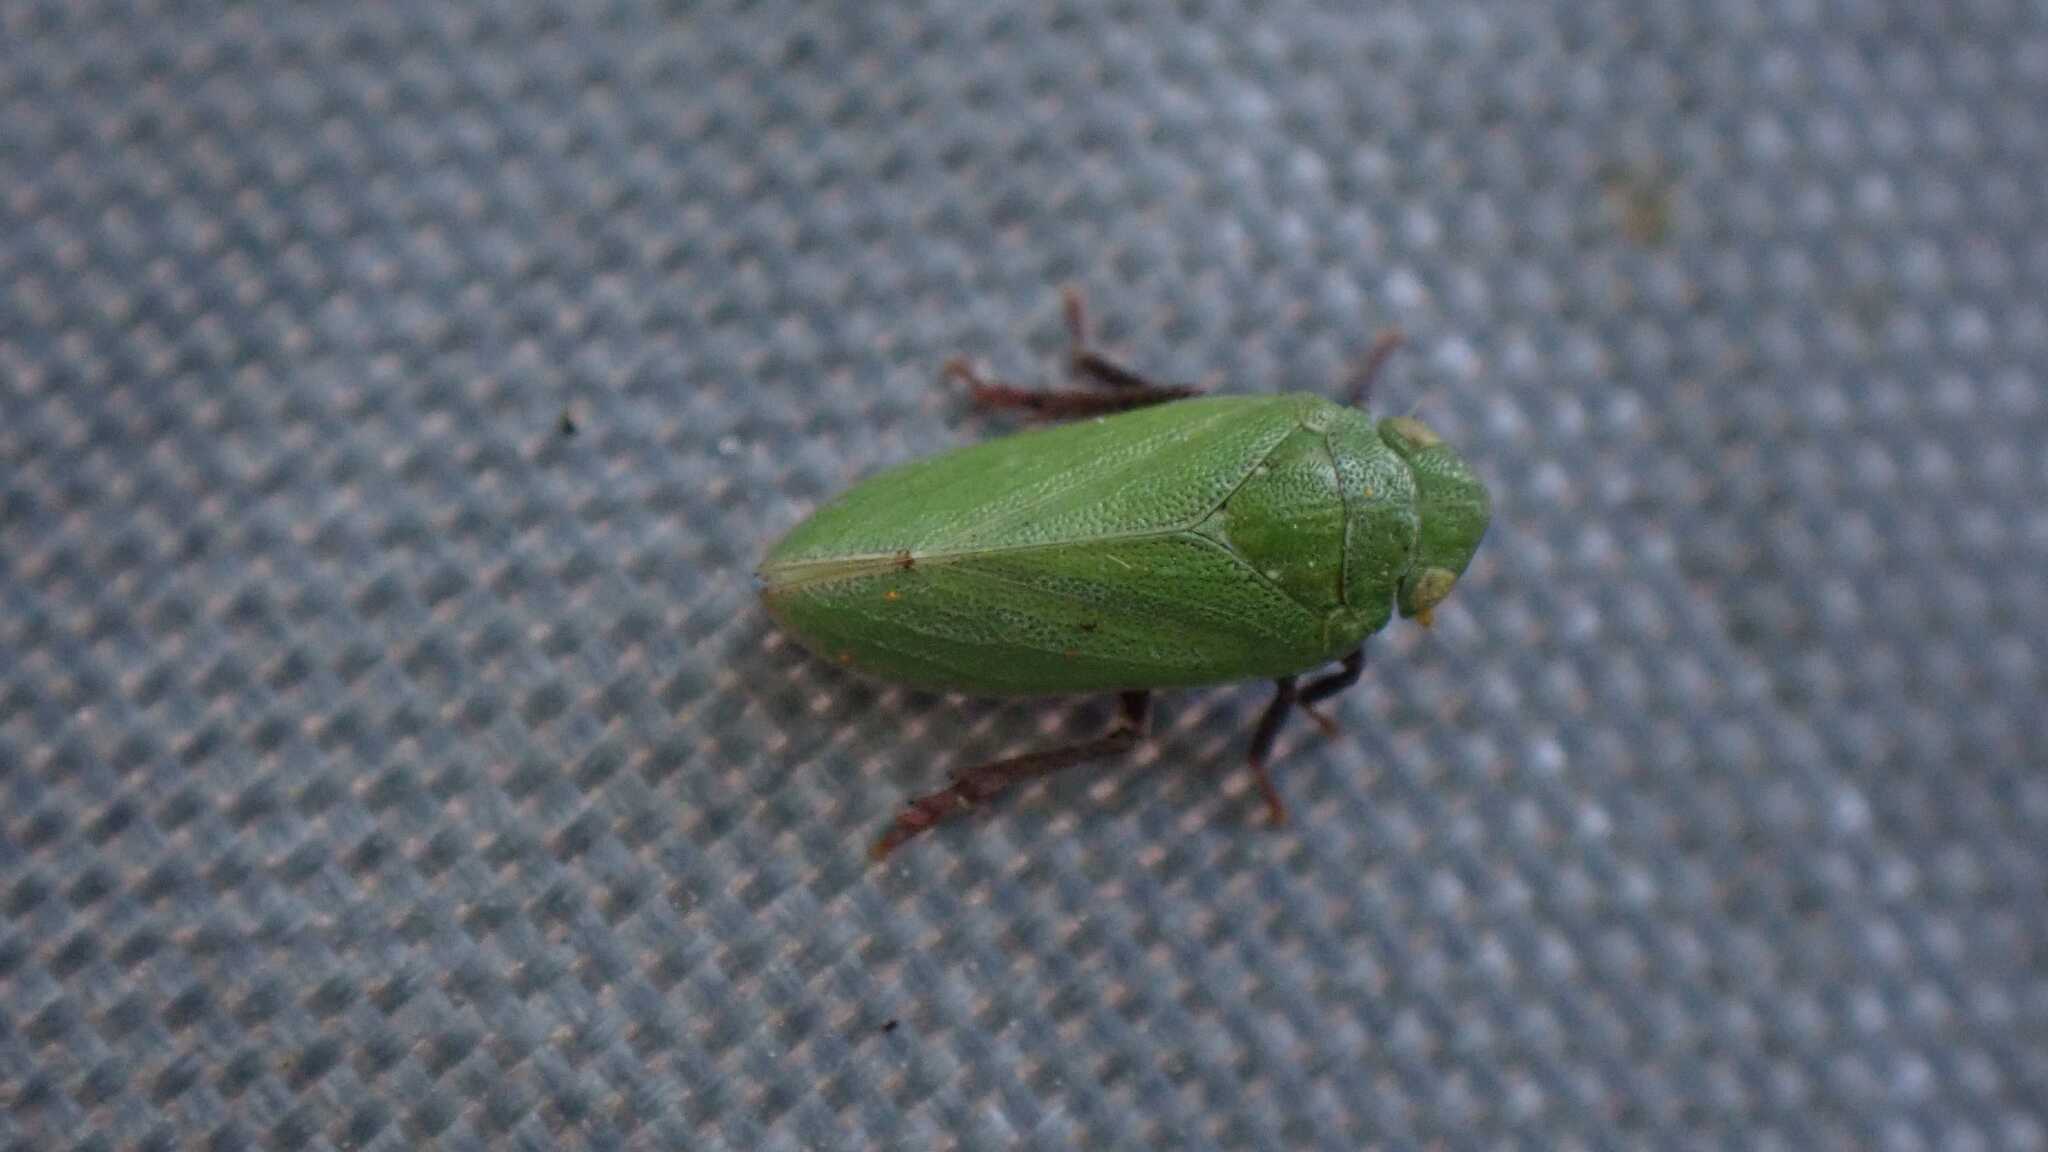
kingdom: Animalia
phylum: Arthropoda
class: Insecta
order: Hemiptera
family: Tettigometridae
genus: Tettigometra
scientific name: Tettigometra virescens
